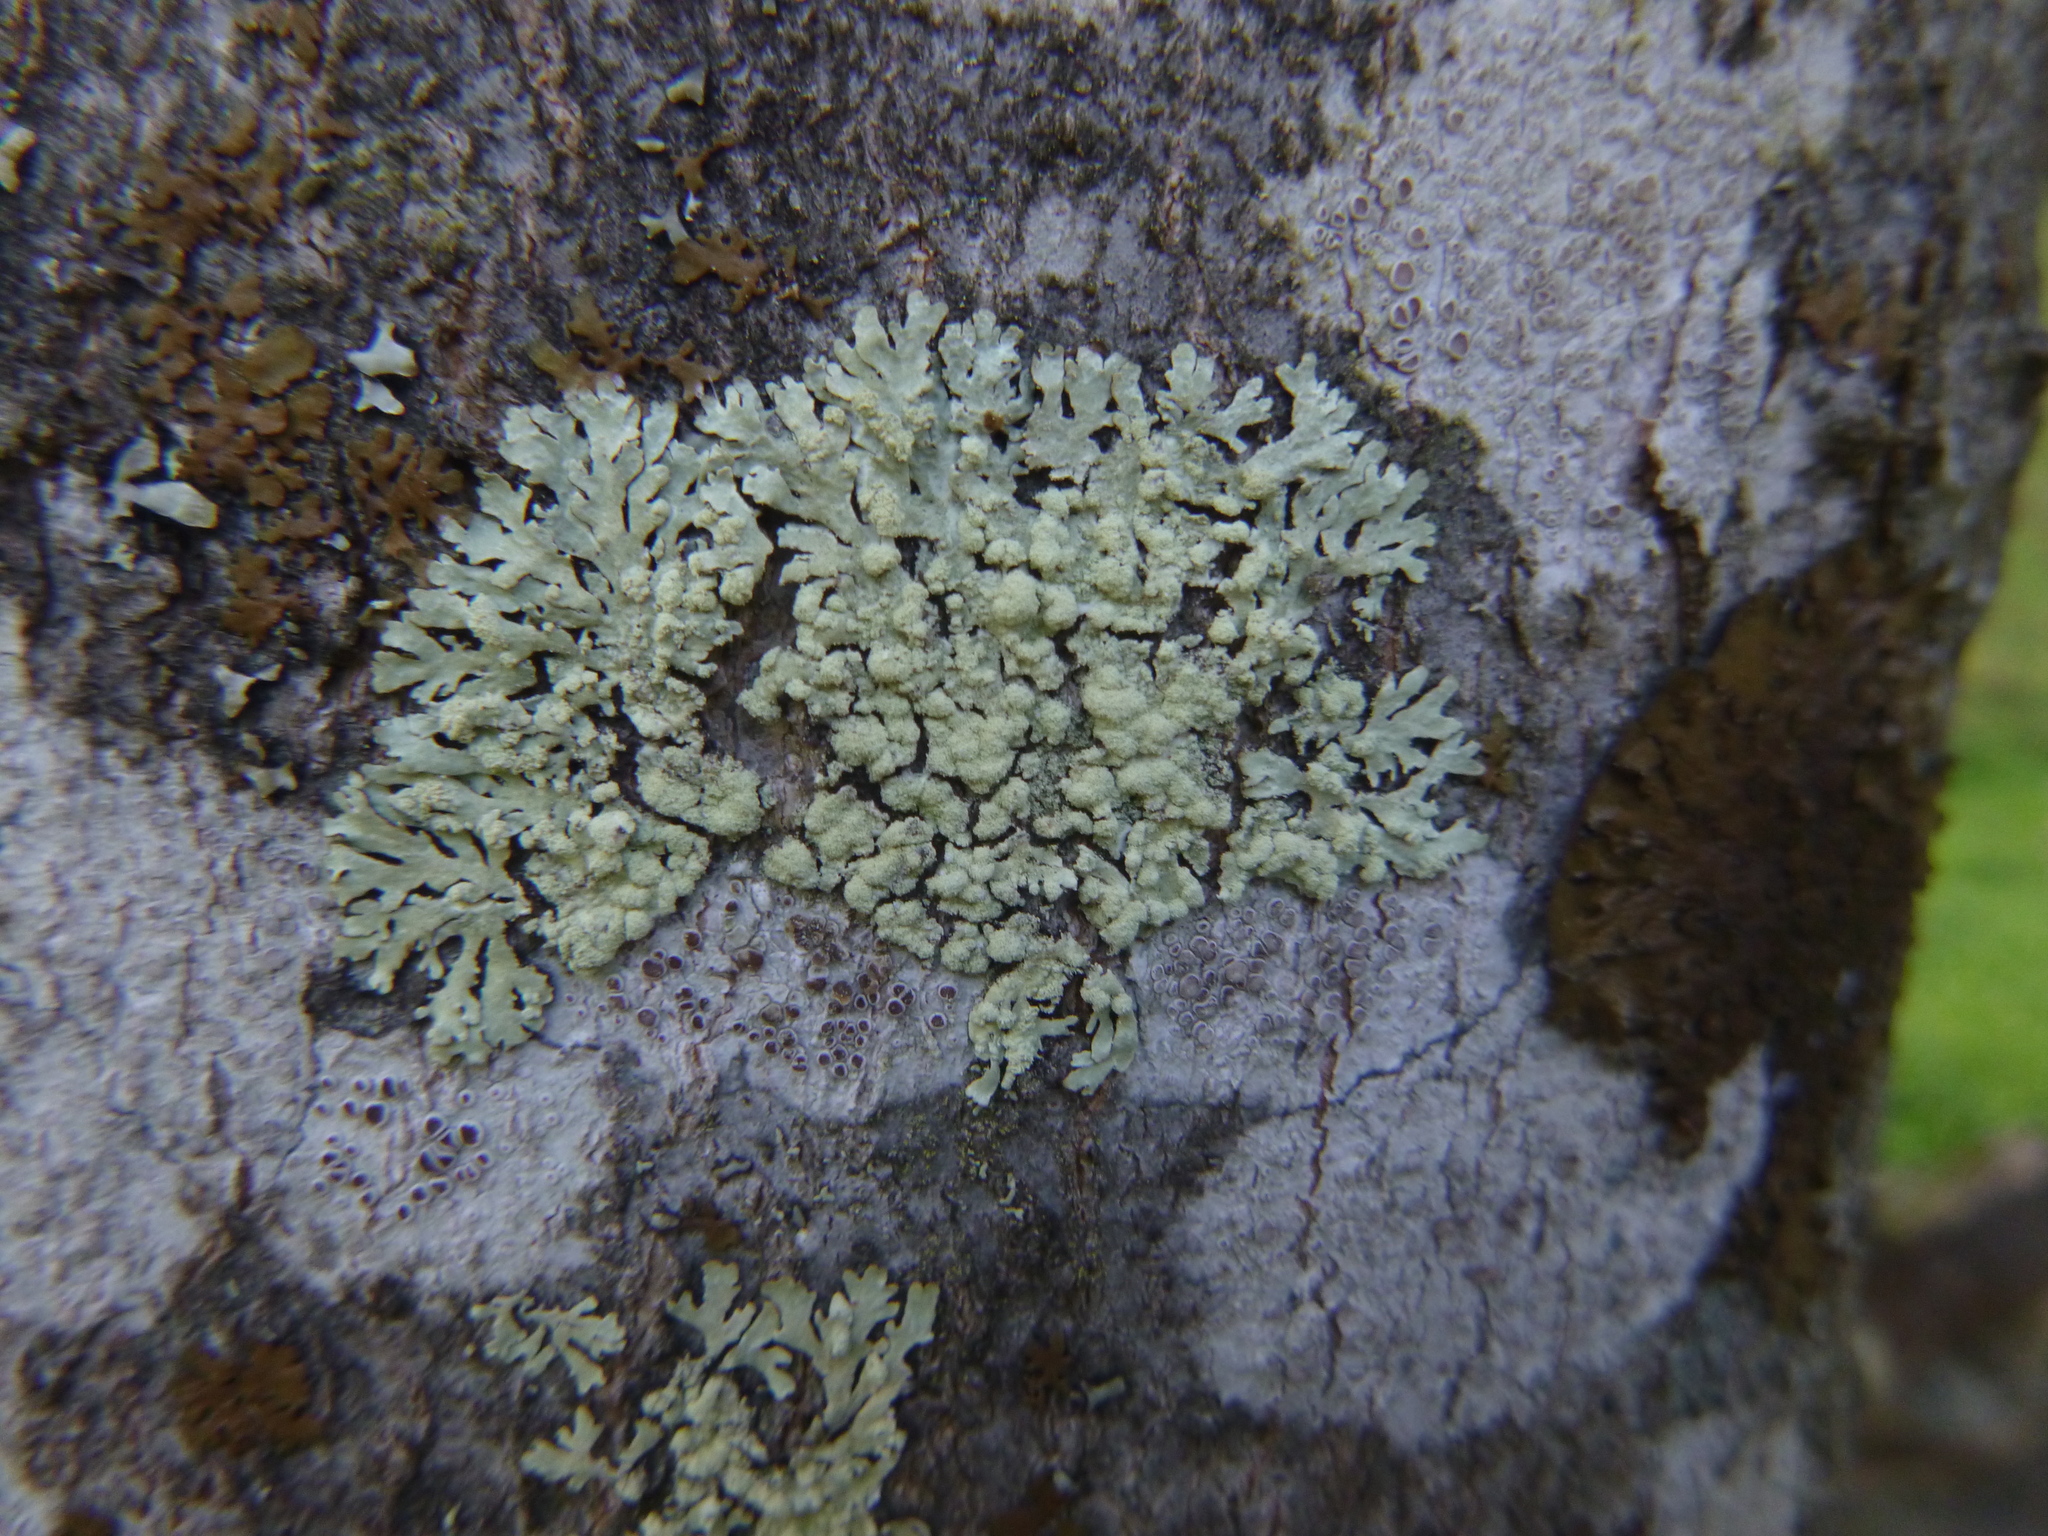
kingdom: Fungi
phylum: Ascomycota
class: Lecanoromycetes
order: Lecanorales
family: Parmeliaceae
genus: Parmeliopsis
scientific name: Parmeliopsis ambigua
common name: Green starburst lichen
